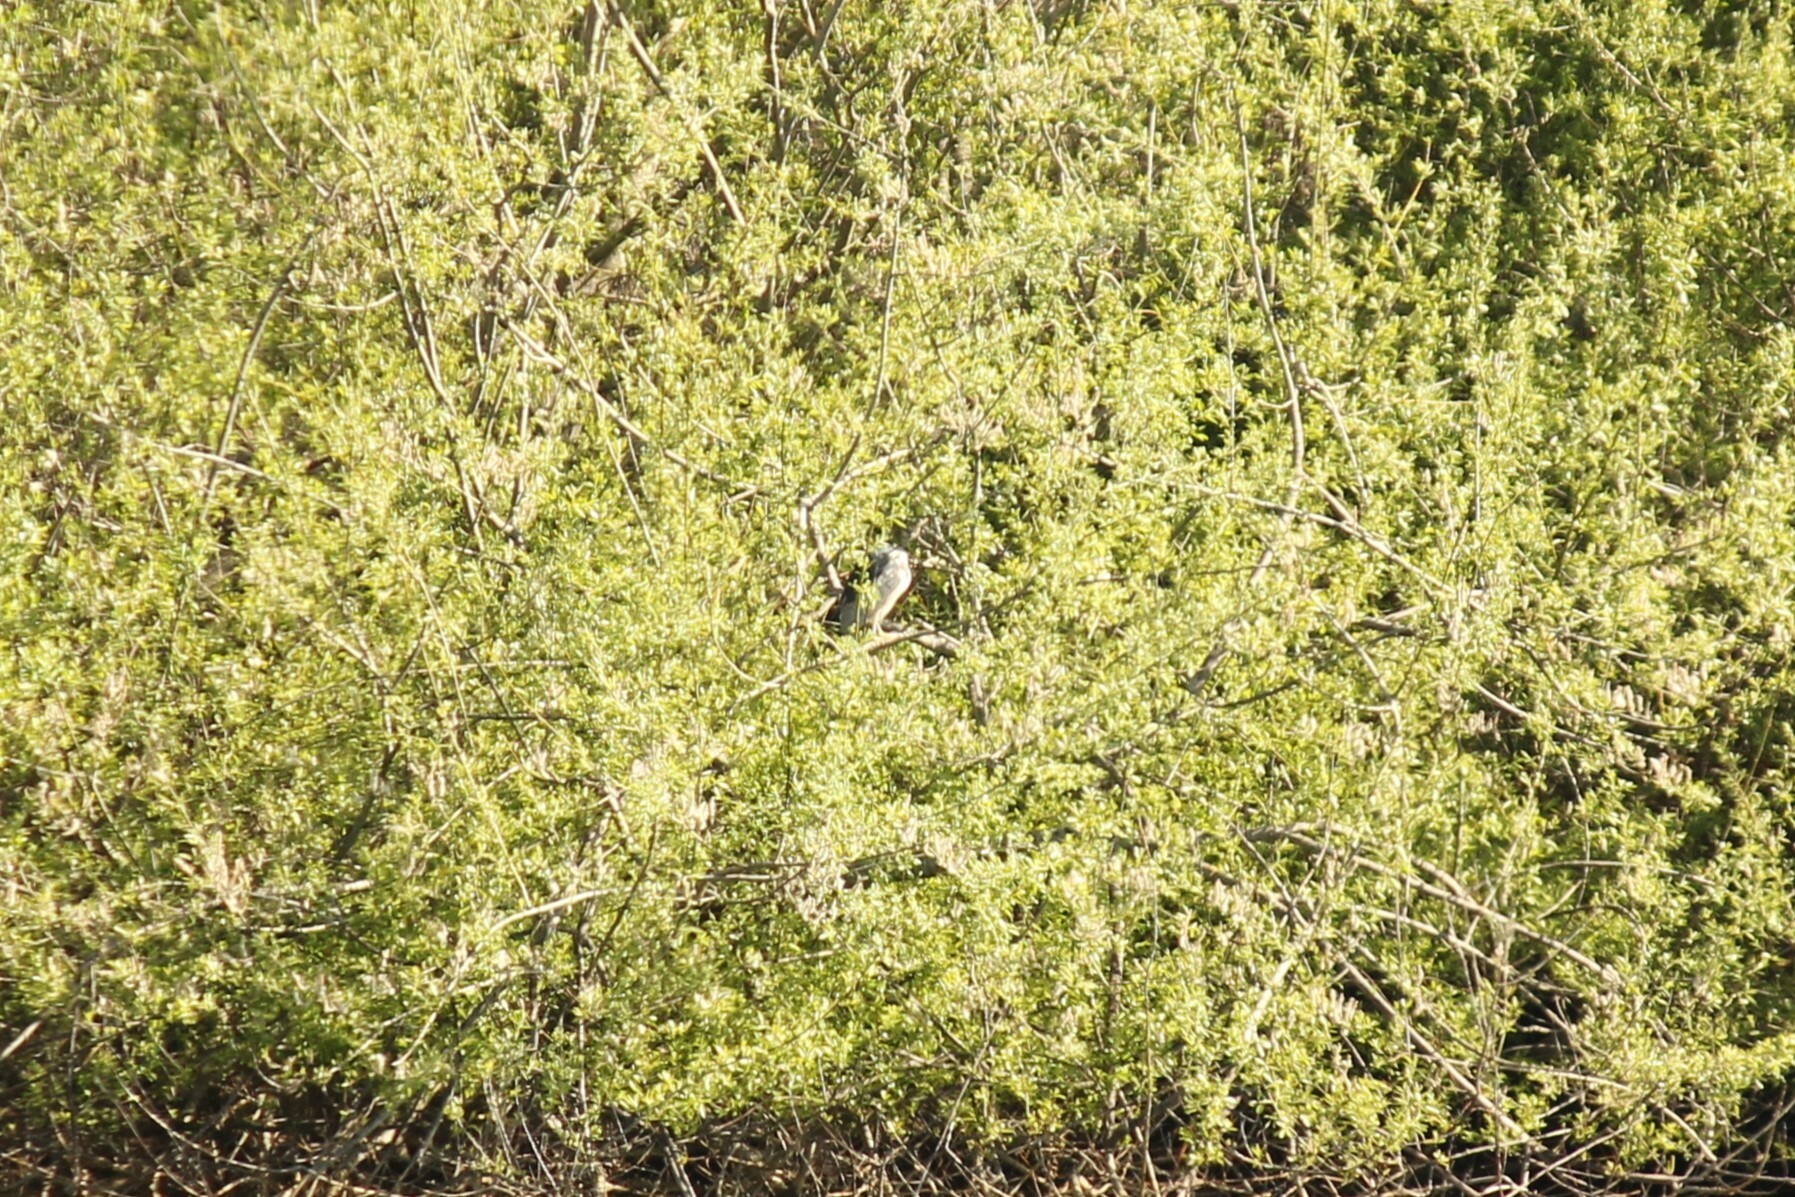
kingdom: Animalia
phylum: Chordata
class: Aves
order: Pelecaniformes
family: Ardeidae
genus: Nycticorax
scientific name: Nycticorax nycticorax
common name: Black-crowned night heron
